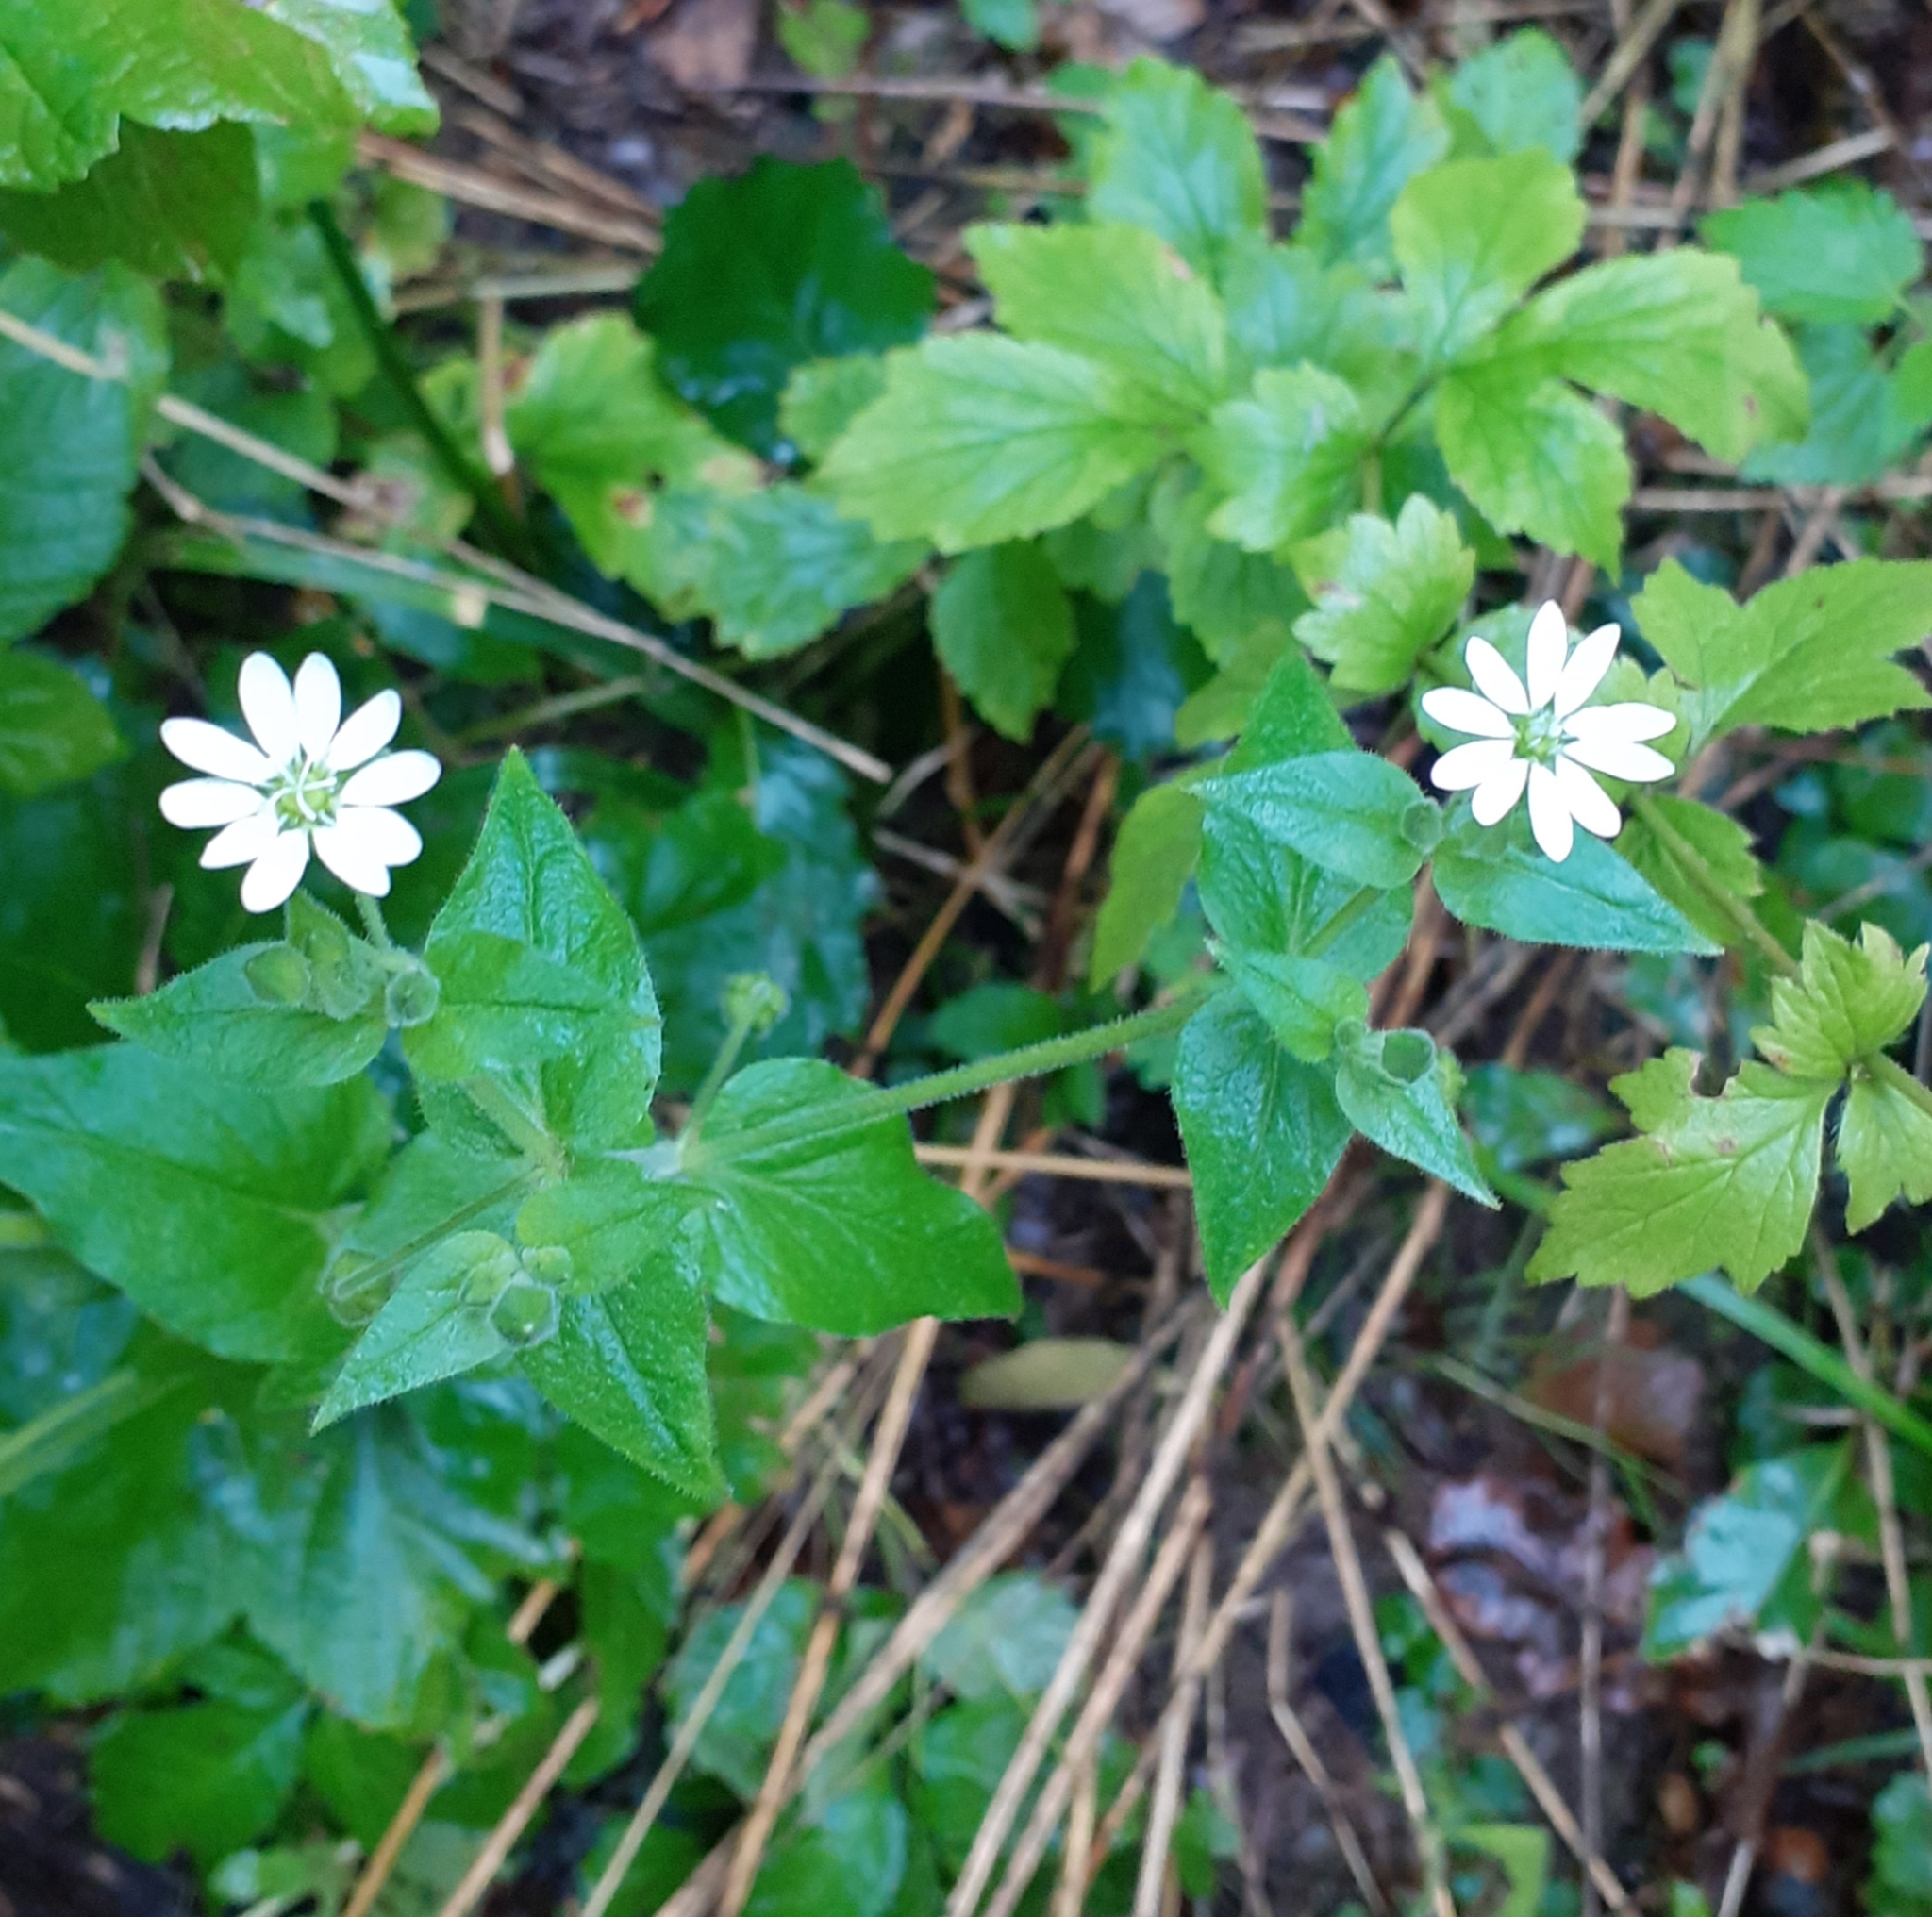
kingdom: Plantae
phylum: Tracheophyta
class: Magnoliopsida
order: Caryophyllales
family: Caryophyllaceae
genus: Stellaria
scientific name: Stellaria aquatica
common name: Water chickweed
